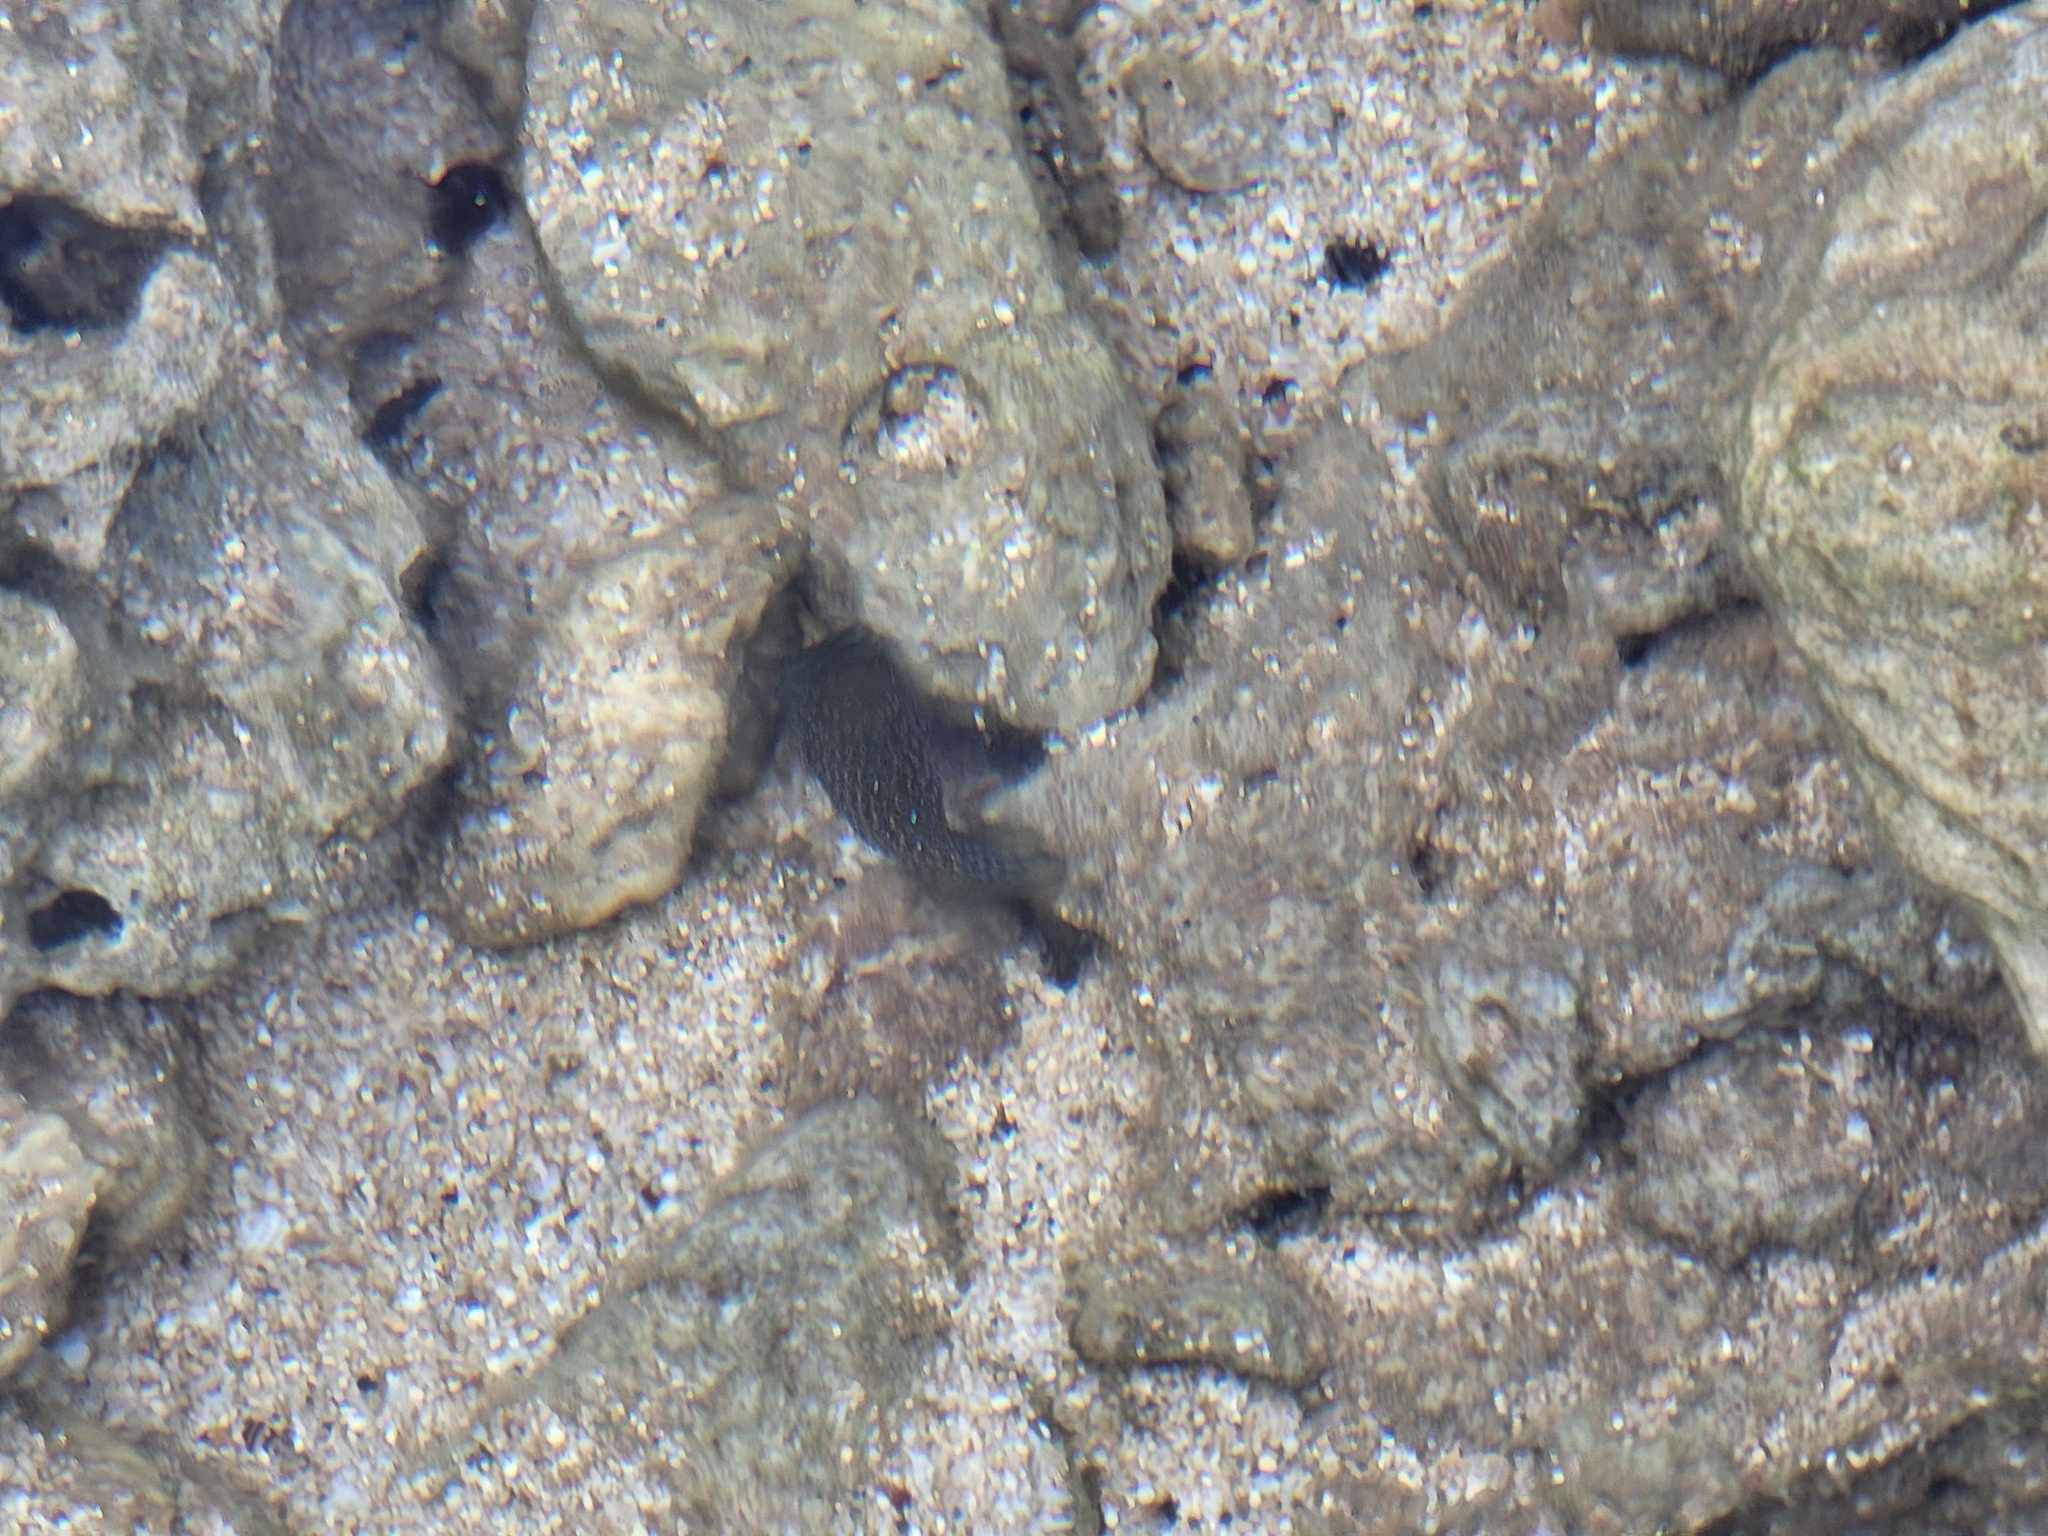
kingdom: Animalia
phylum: Chordata
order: Tetraodontiformes
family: Tetraodontidae
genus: Canthigaster
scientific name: Canthigaster amboinensis
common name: Ambon pufferfish
